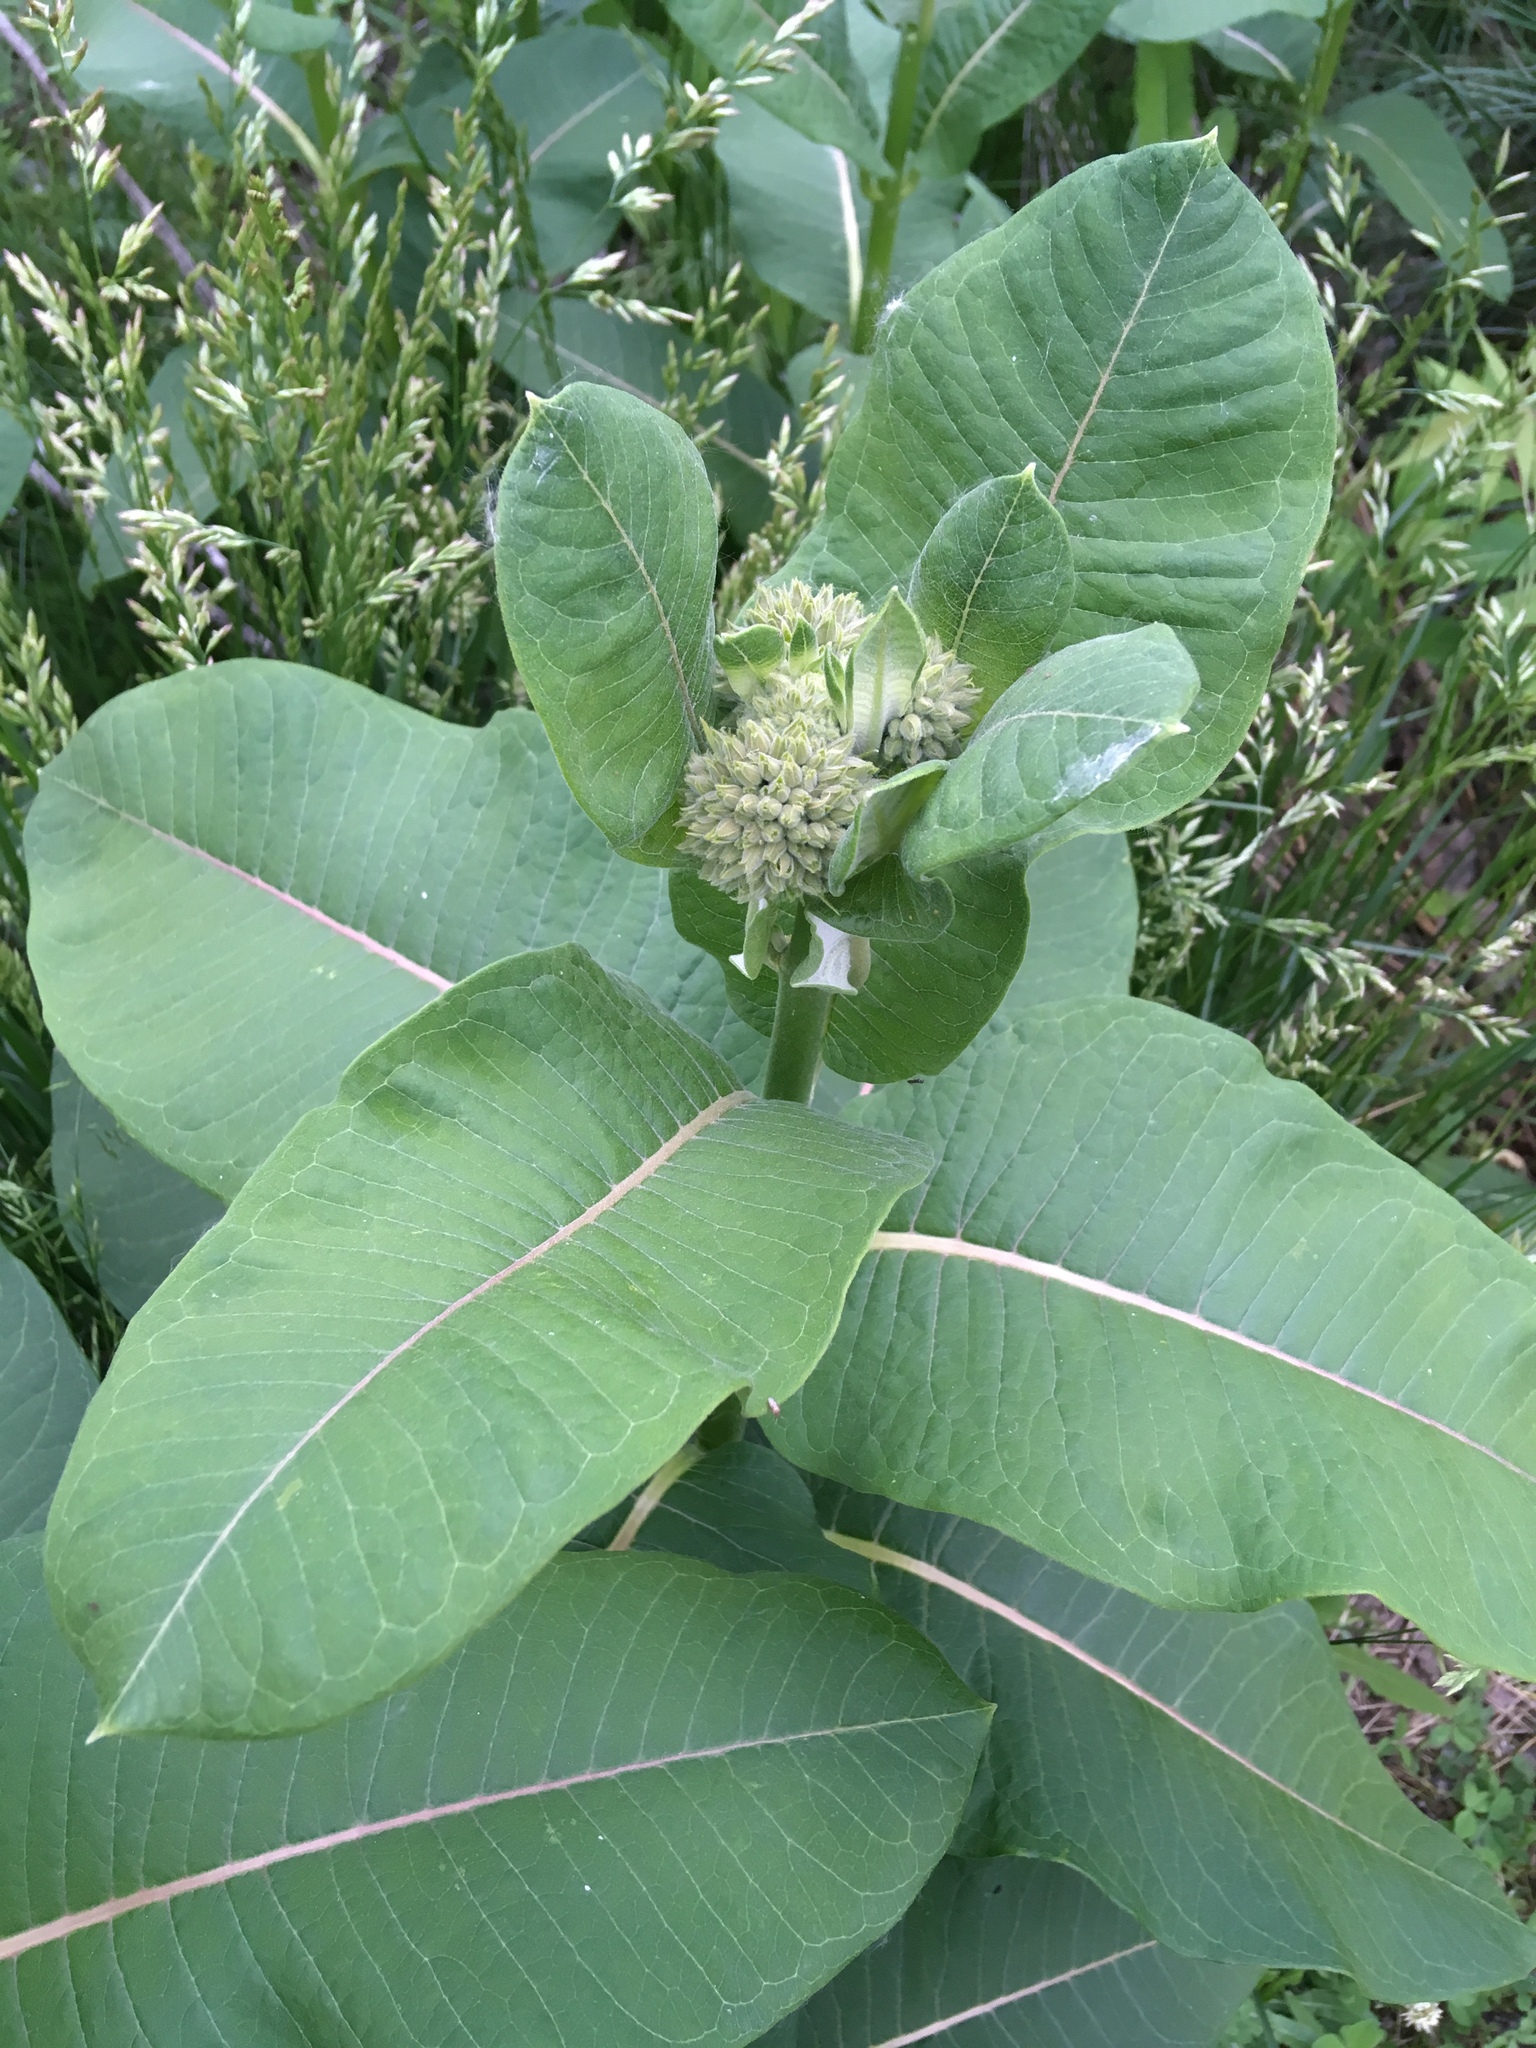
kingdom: Plantae
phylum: Tracheophyta
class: Magnoliopsida
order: Gentianales
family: Apocynaceae
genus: Asclepias
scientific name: Asclepias syriaca
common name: Common milkweed
